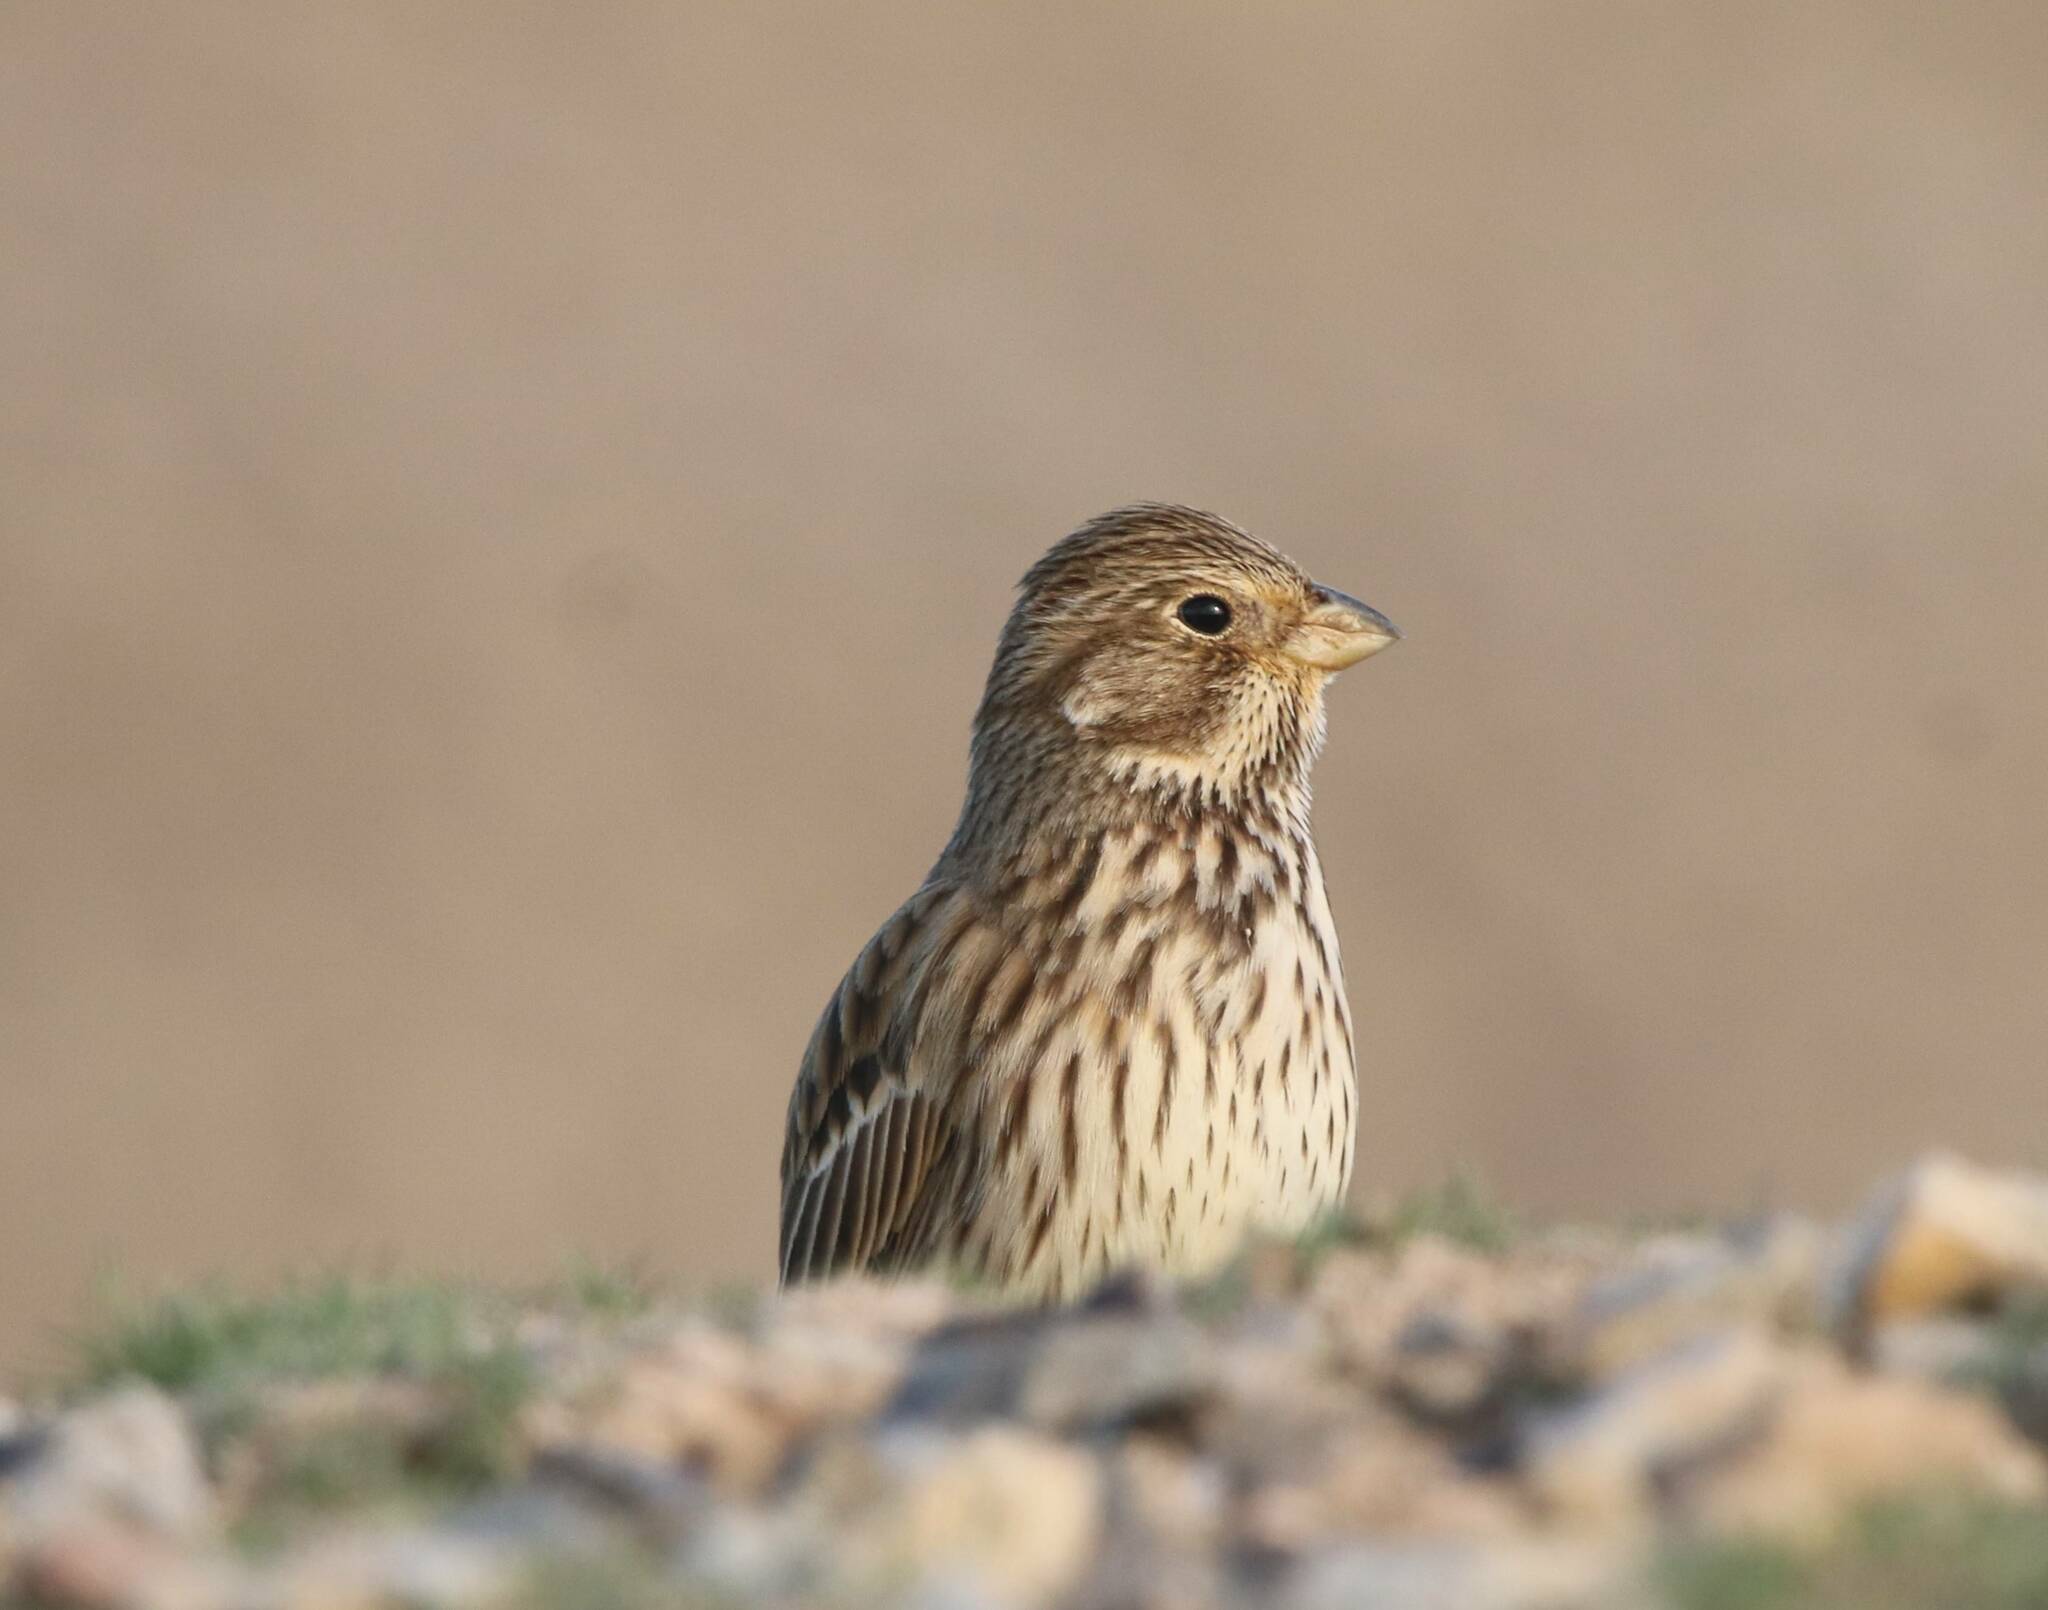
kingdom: Animalia
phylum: Chordata
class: Aves
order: Passeriformes
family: Emberizidae
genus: Emberiza
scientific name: Emberiza calandra
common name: Corn bunting
